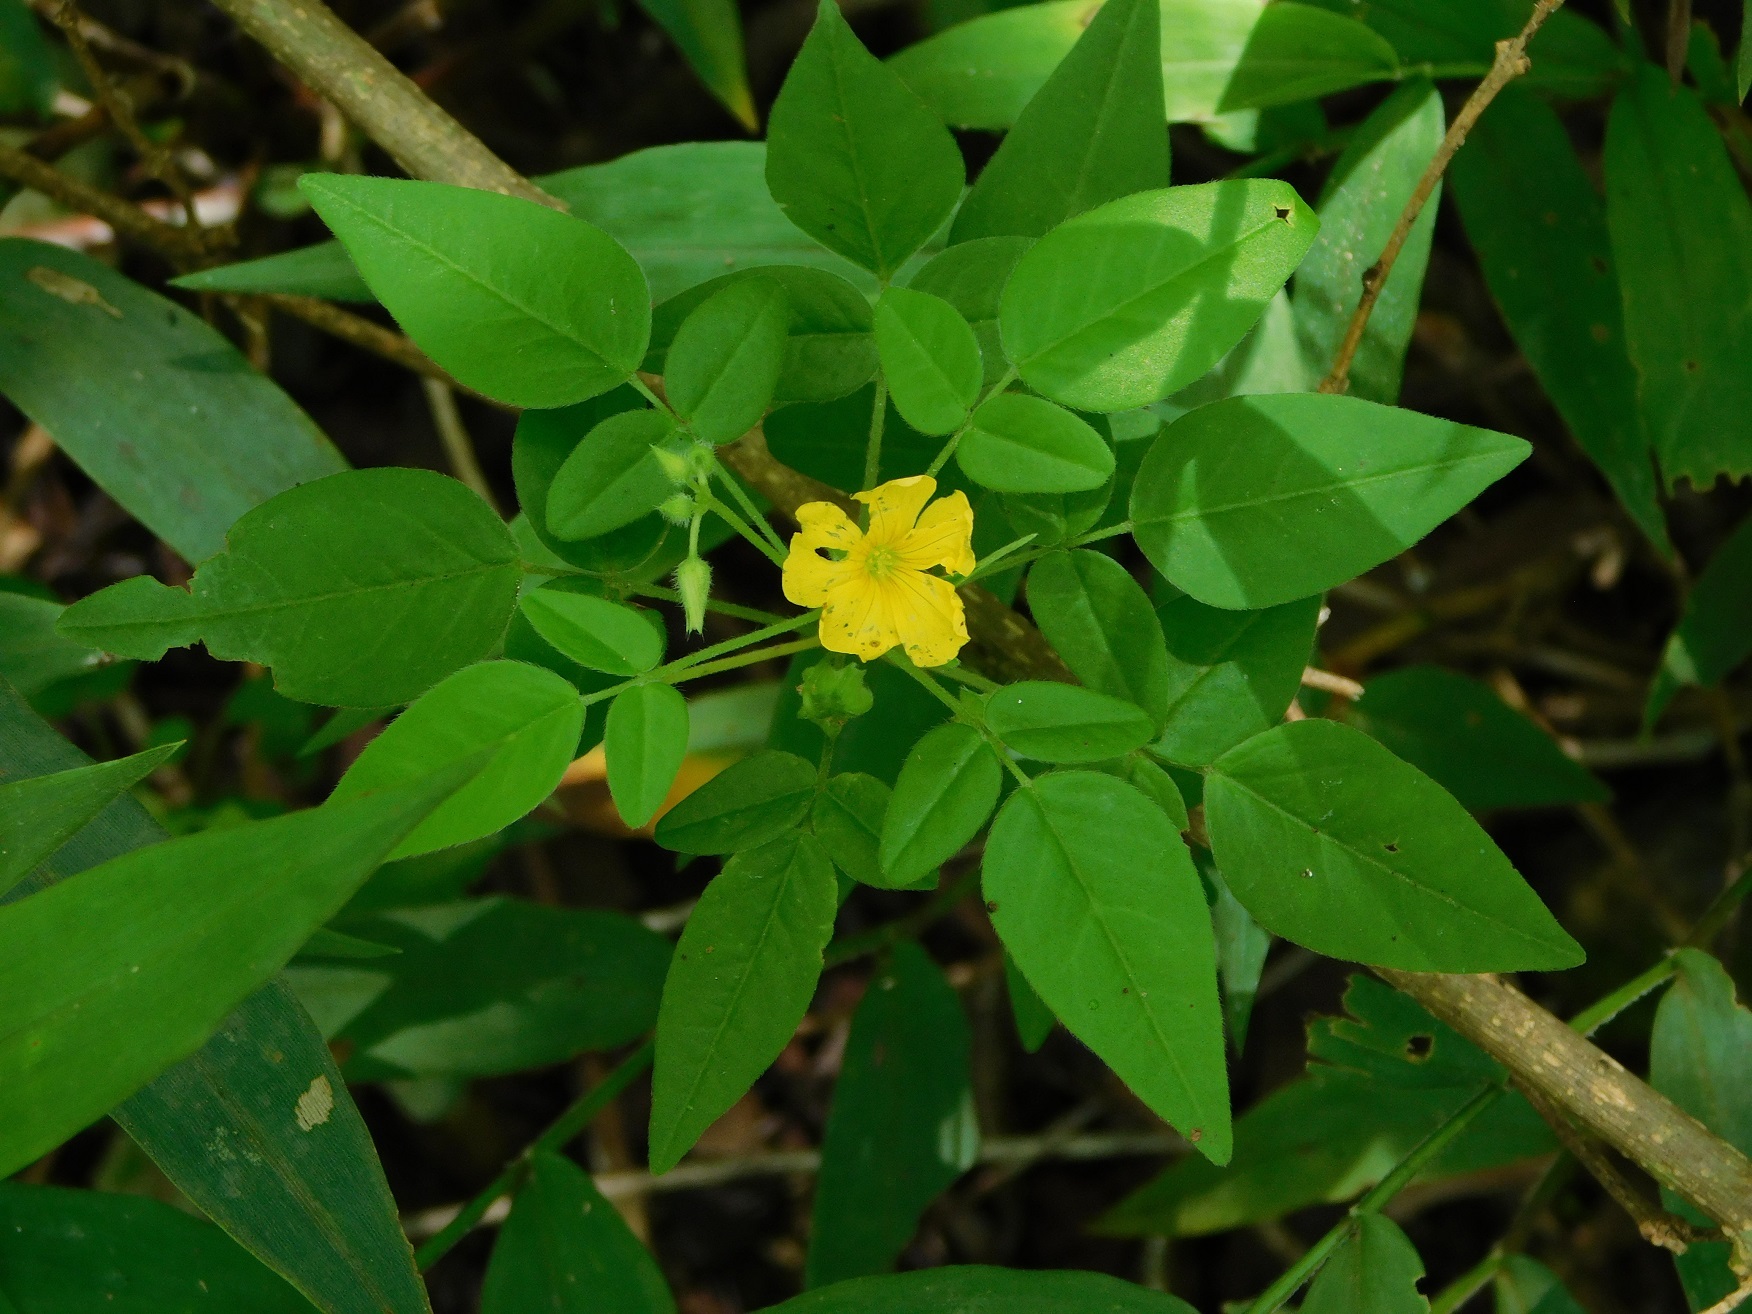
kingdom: Plantae
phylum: Tracheophyta
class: Magnoliopsida
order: Oxalidales
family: Oxalidaceae
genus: Oxalis
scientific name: Oxalis frutescens
